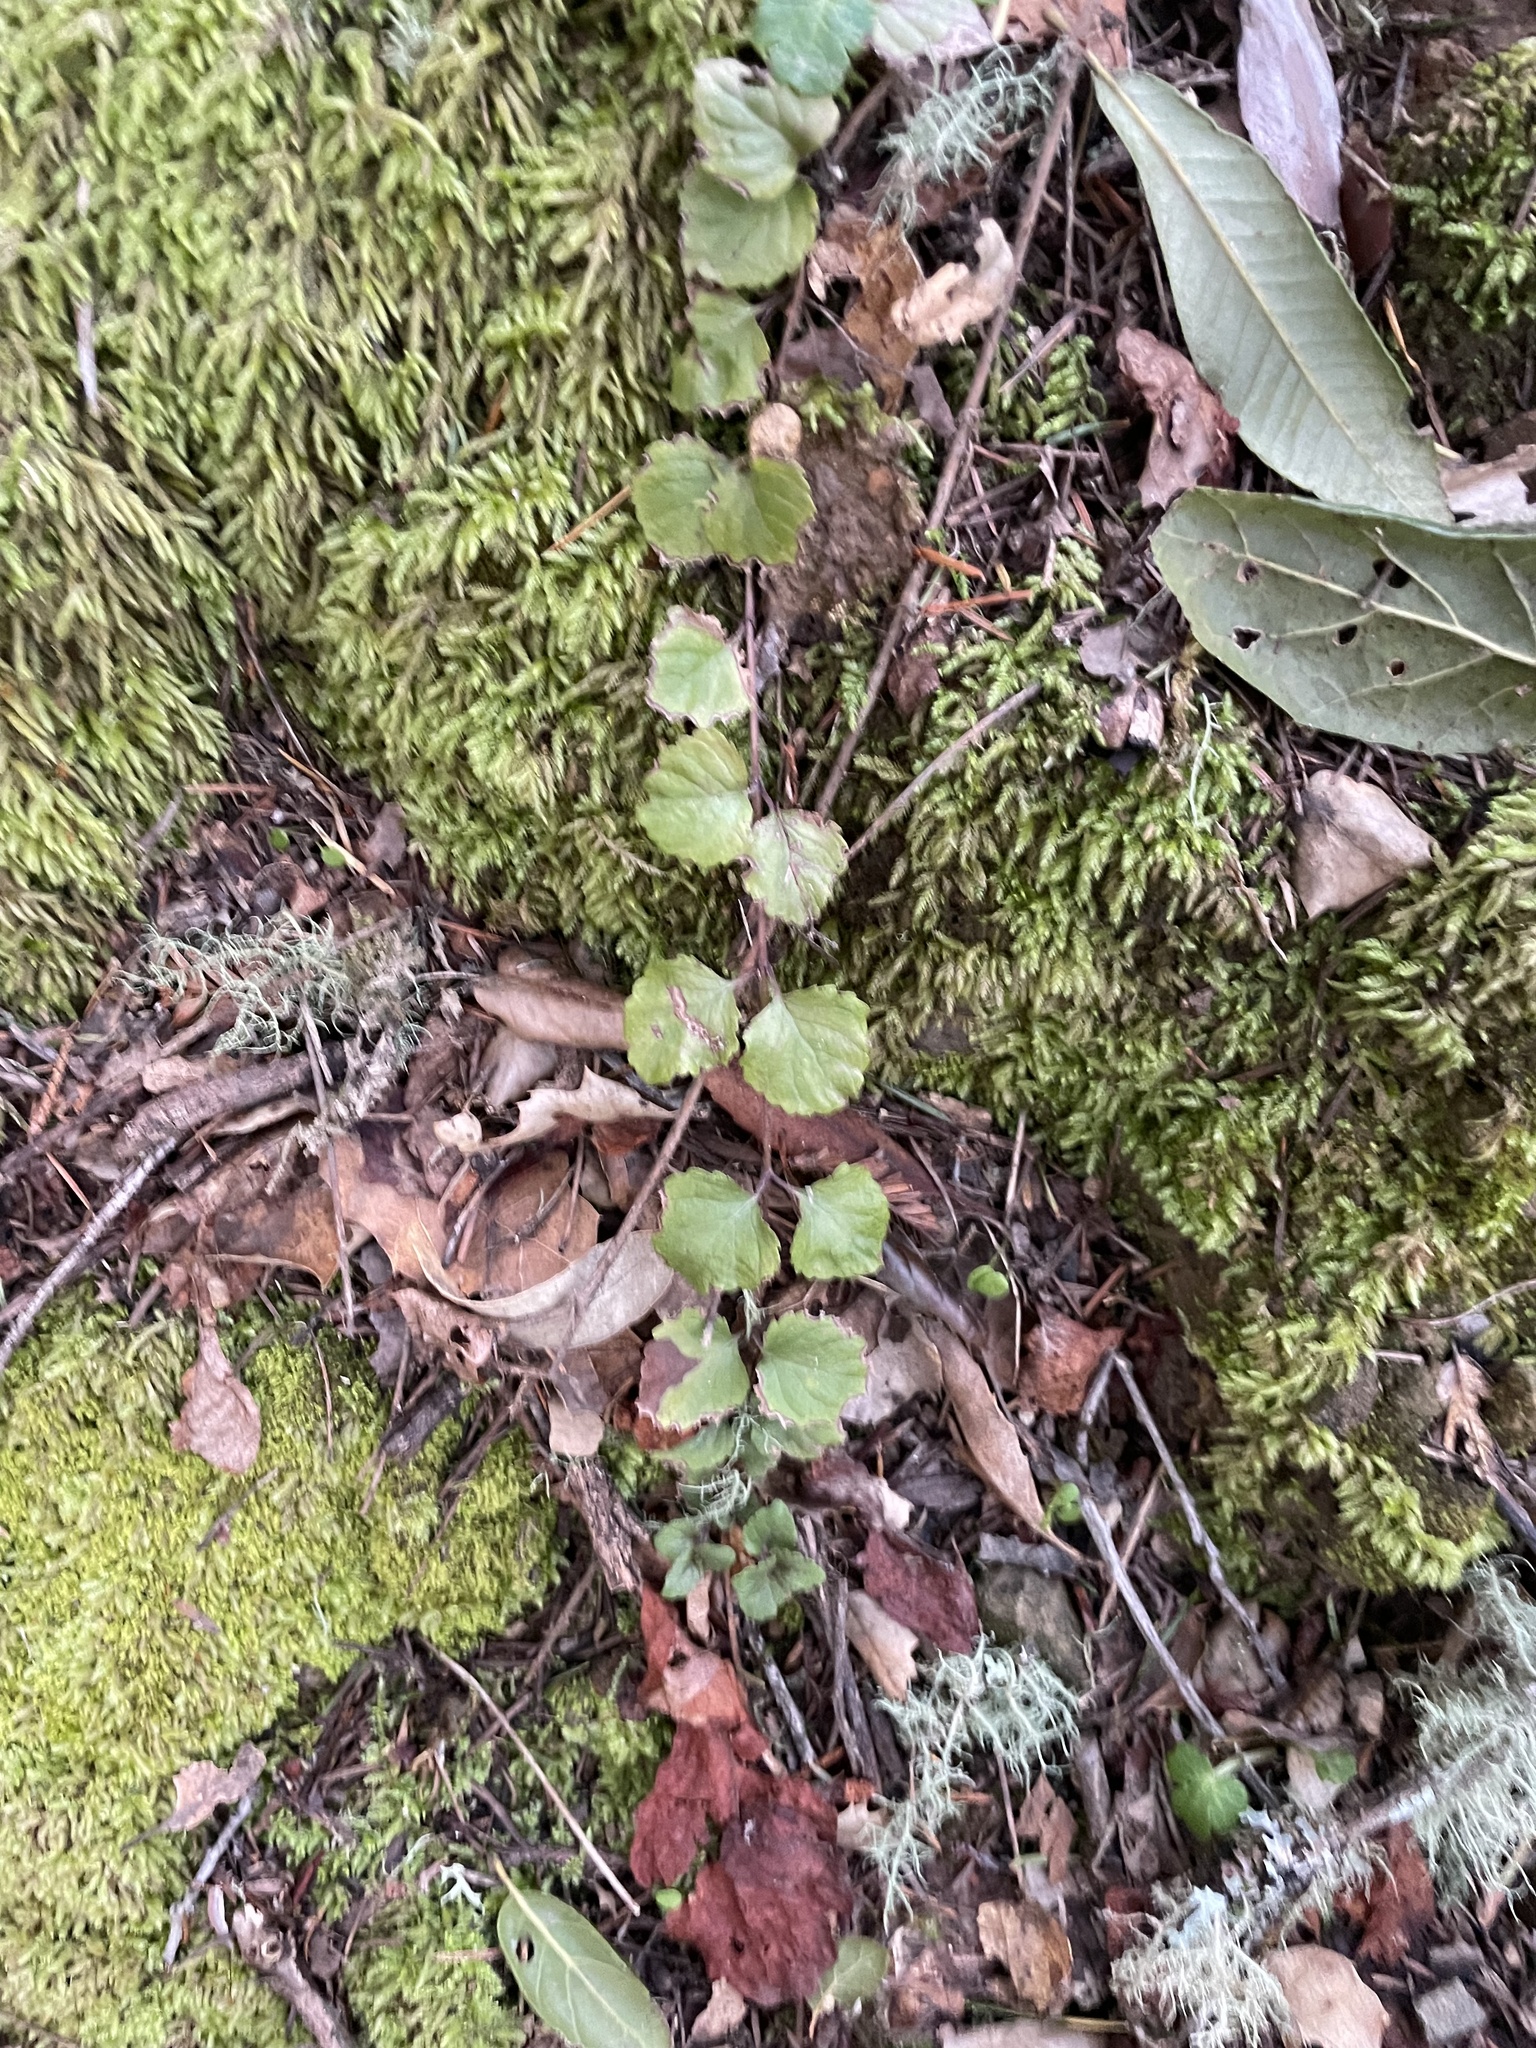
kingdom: Plantae
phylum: Tracheophyta
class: Magnoliopsida
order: Lamiales
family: Lamiaceae
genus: Micromeria
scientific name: Micromeria douglasii
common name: Yerba buena
